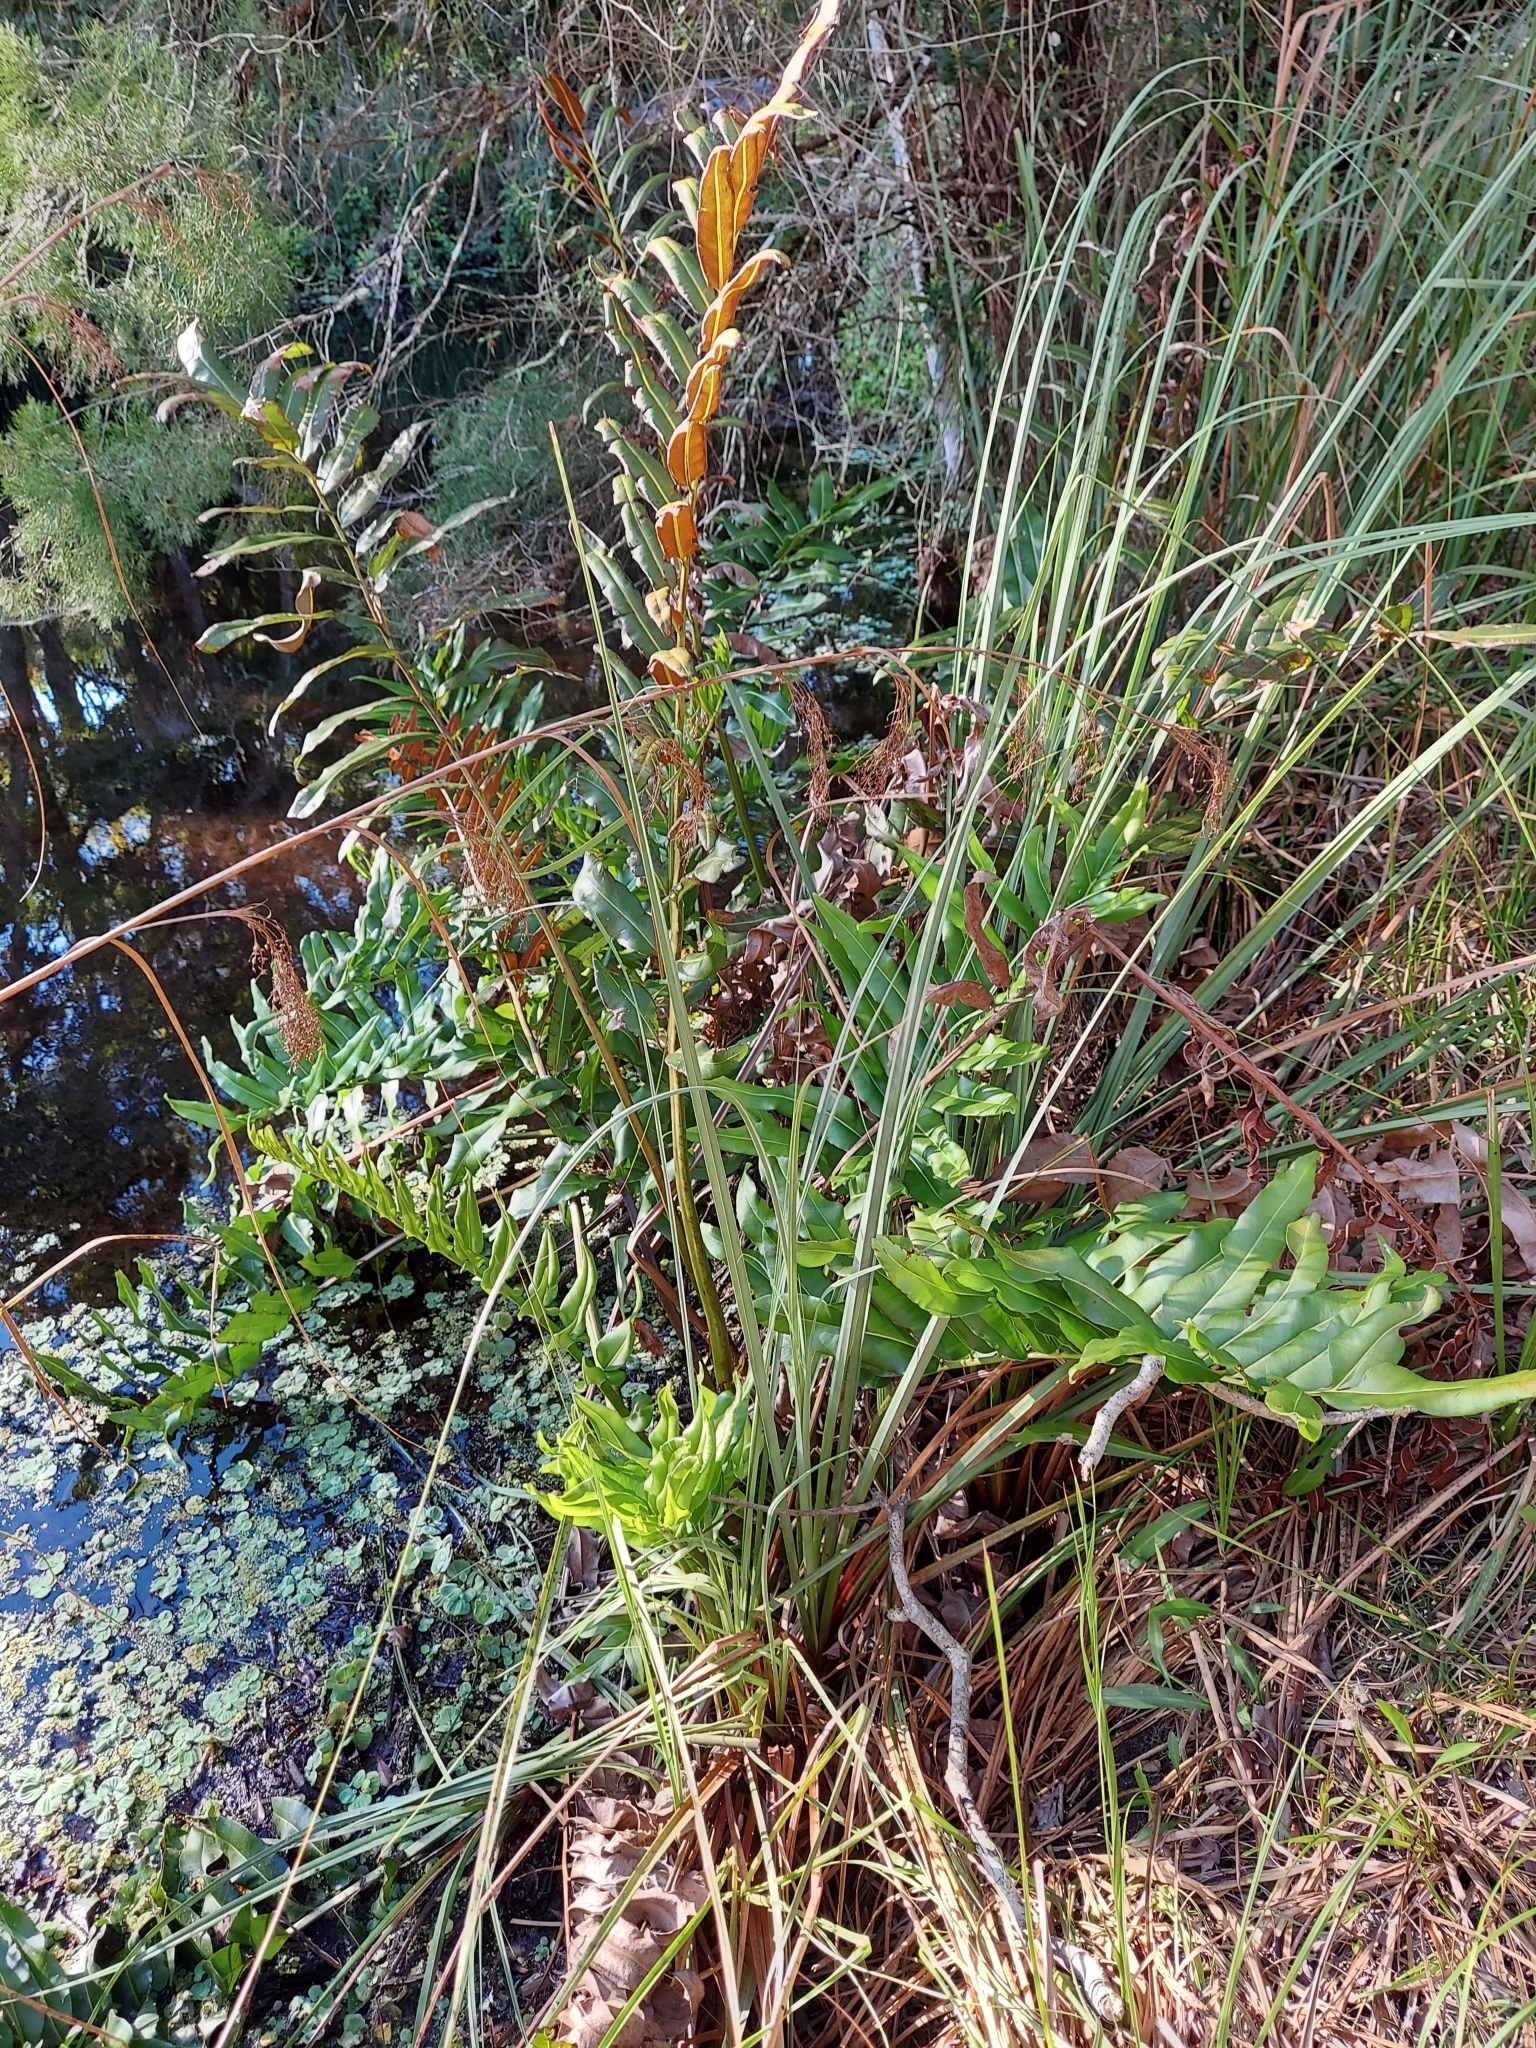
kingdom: Plantae
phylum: Tracheophyta
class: Polypodiopsida
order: Polypodiales
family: Pteridaceae
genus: Acrostichum
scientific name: Acrostichum danaeifolium
